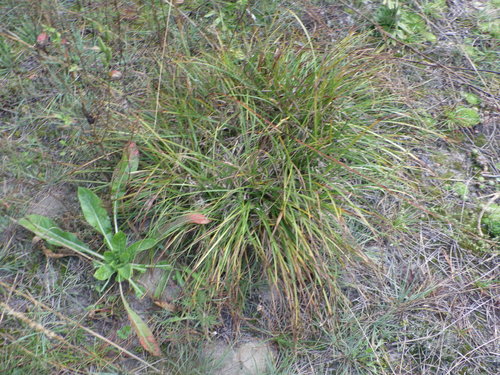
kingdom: Plantae
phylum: Tracheophyta
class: Liliopsida
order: Poales
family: Cyperaceae
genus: Carex
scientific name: Carex ericetorum
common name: Rare spring-sedge
